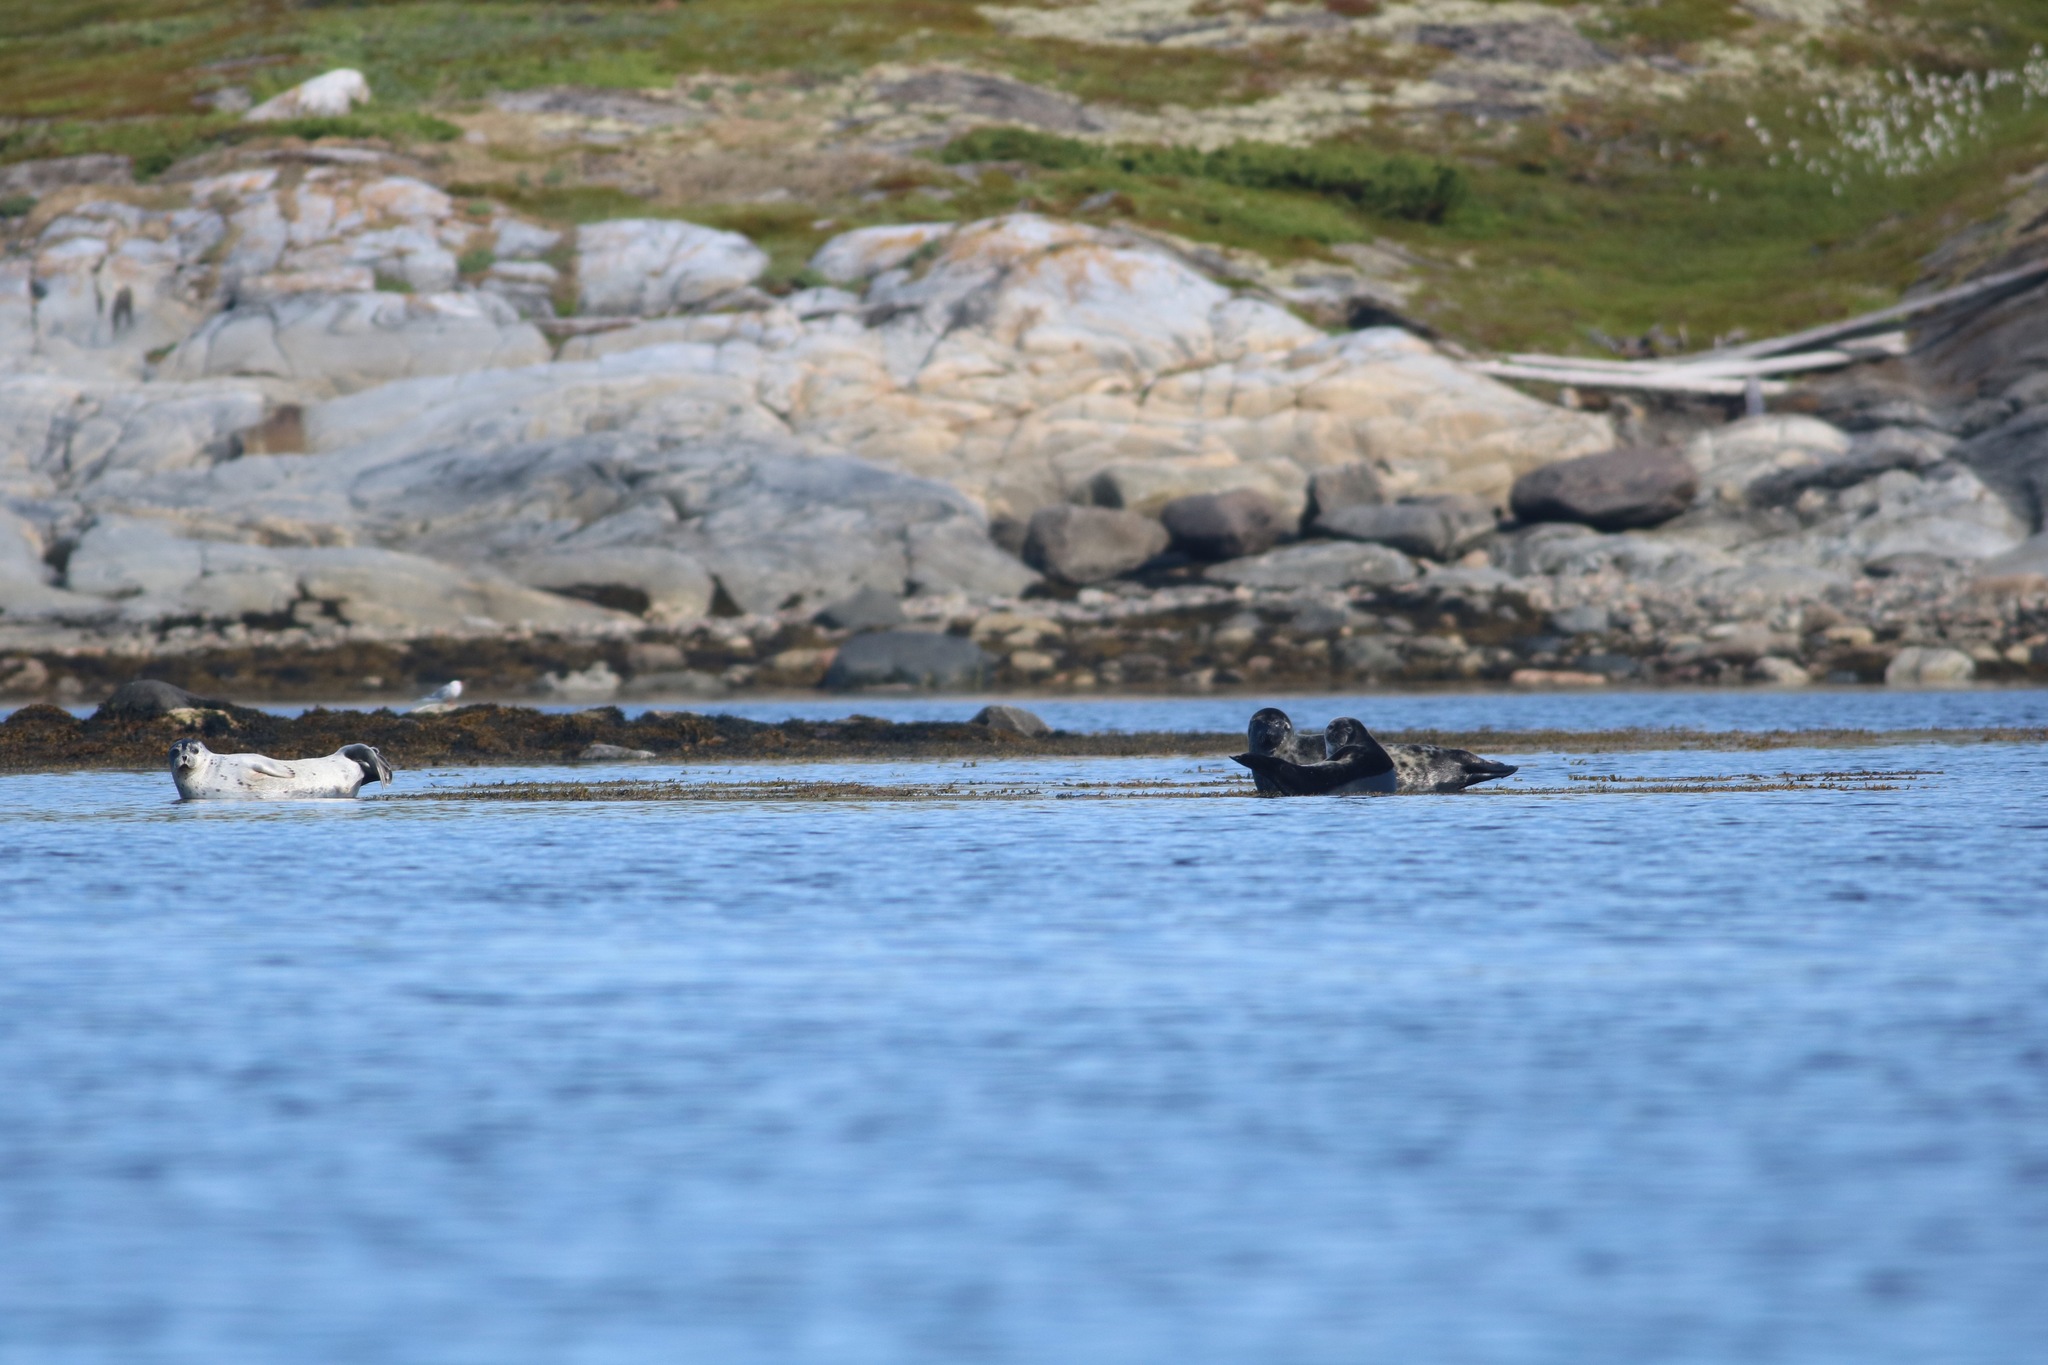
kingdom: Animalia
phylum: Chordata
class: Mammalia
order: Carnivora
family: Phocidae
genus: Phoca
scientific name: Phoca vitulina
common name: Harbor seal
